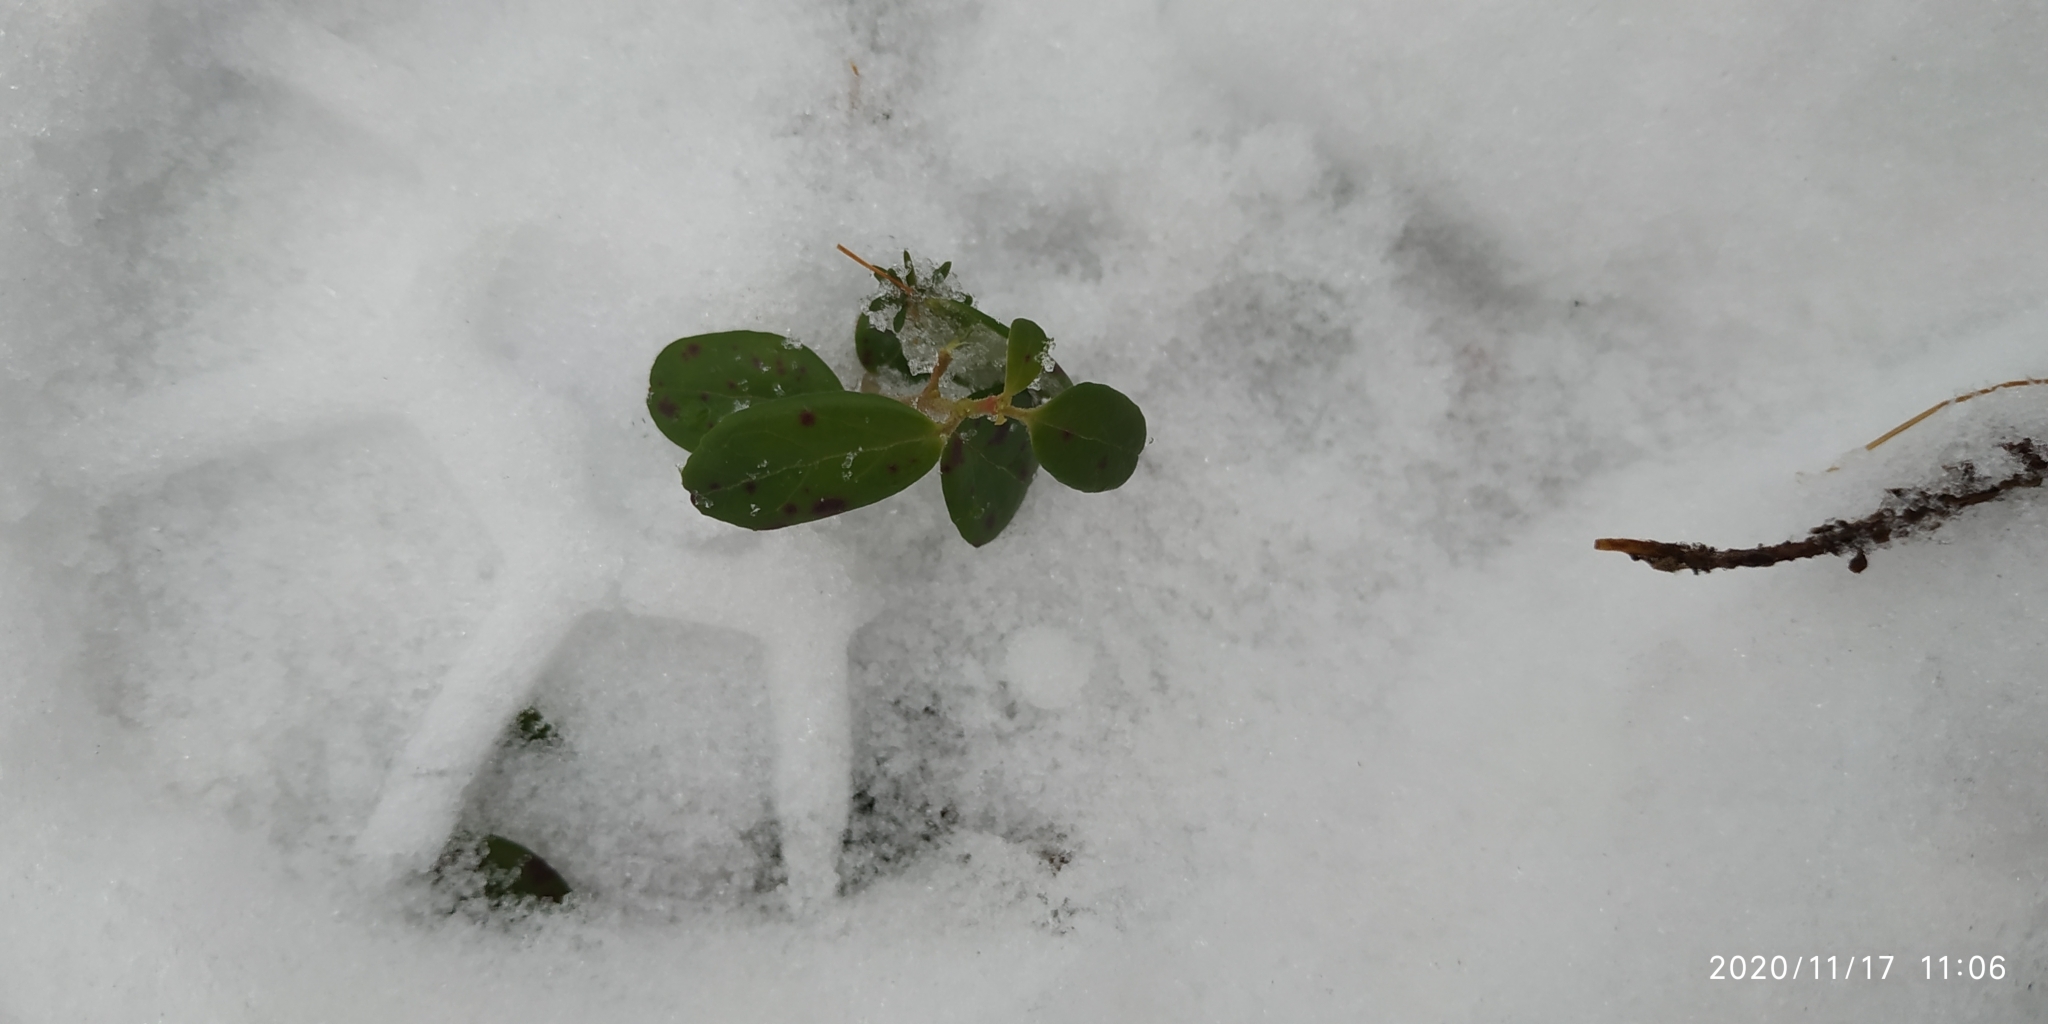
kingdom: Plantae
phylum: Tracheophyta
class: Magnoliopsida
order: Ericales
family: Ericaceae
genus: Vaccinium
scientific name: Vaccinium vitis-idaea
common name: Cowberry
